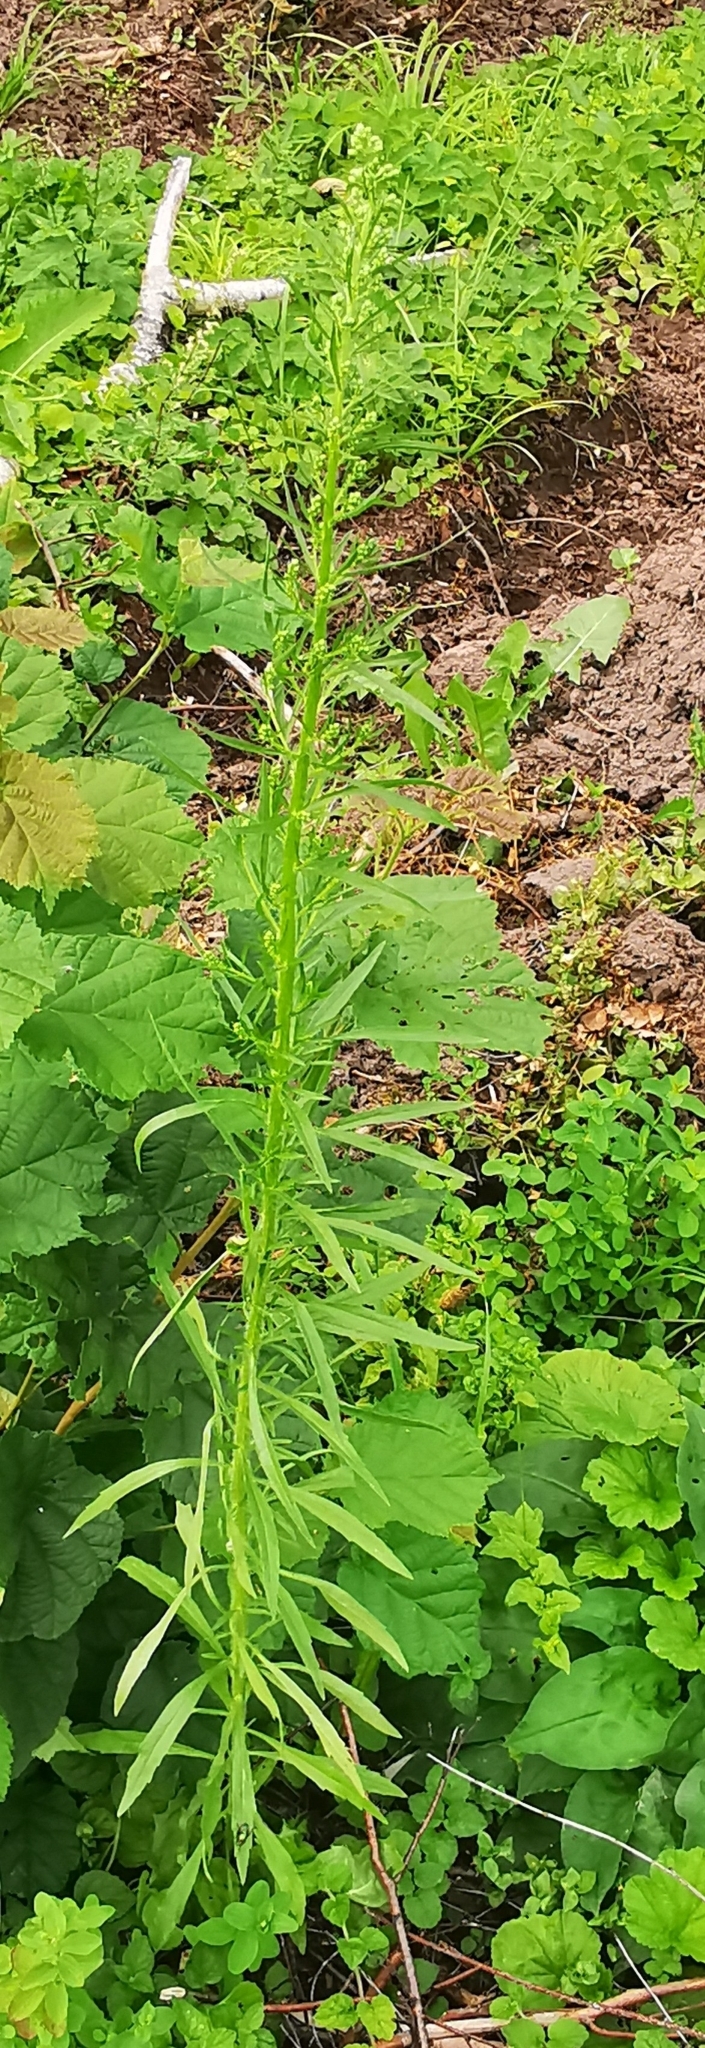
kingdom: Plantae
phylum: Tracheophyta
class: Magnoliopsida
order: Asterales
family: Asteraceae
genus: Erigeron
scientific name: Erigeron canadensis
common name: Canadian fleabane
